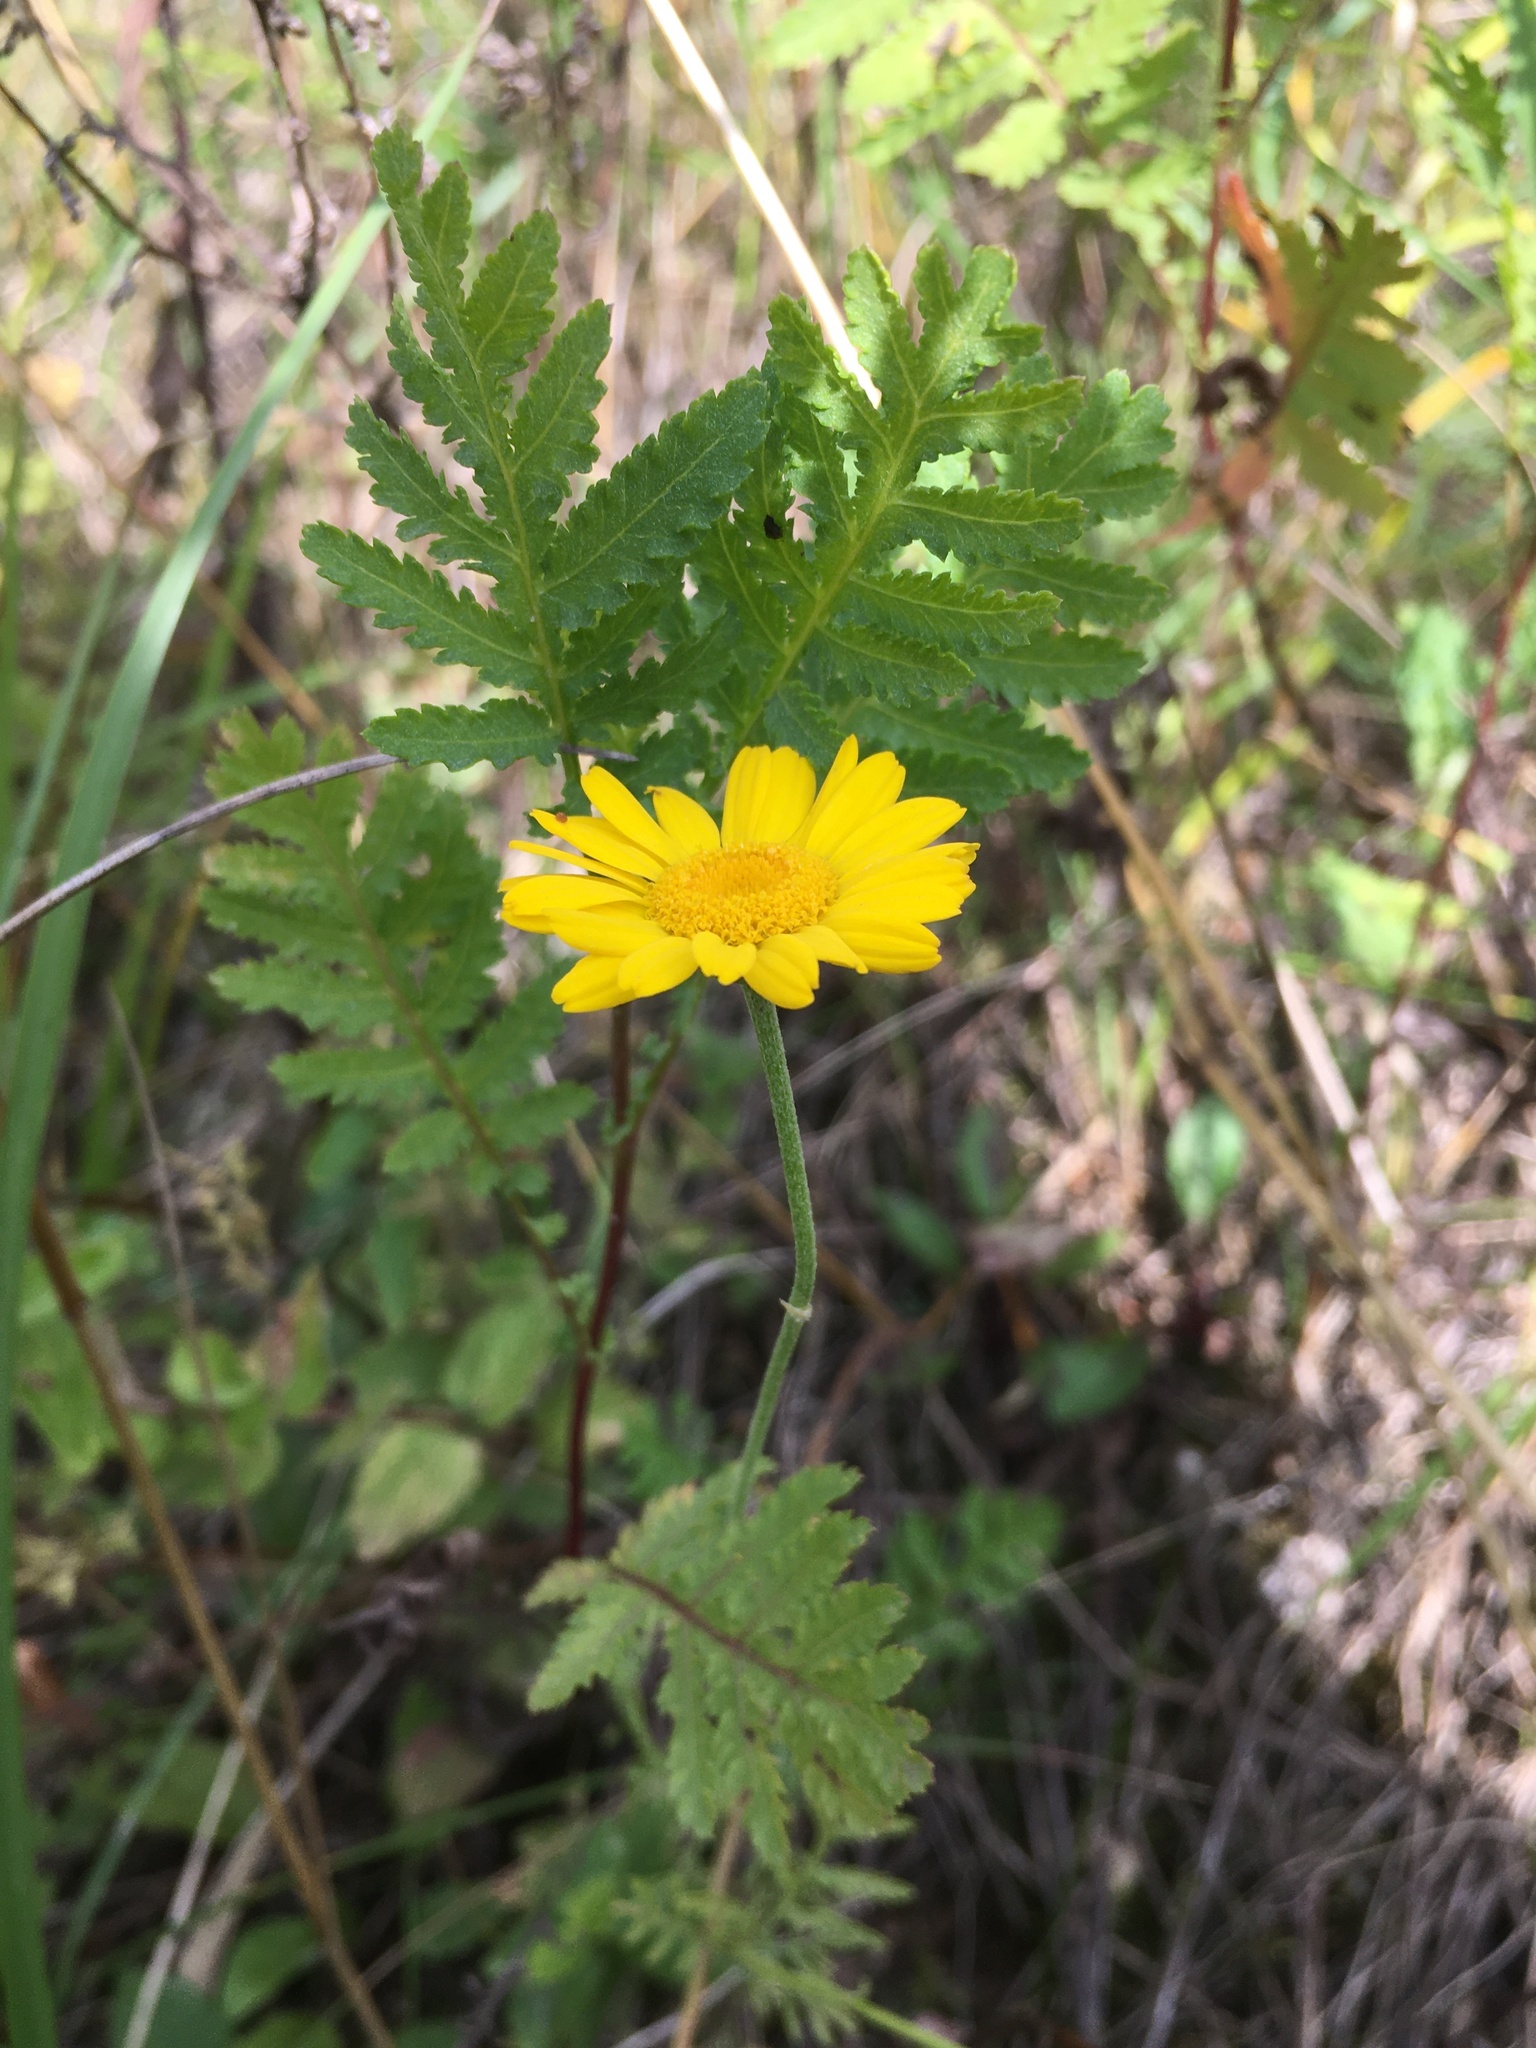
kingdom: Plantae
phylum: Tracheophyta
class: Magnoliopsida
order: Asterales
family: Asteraceae
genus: Cota
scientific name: Cota tinctoria
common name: Golden chamomile
